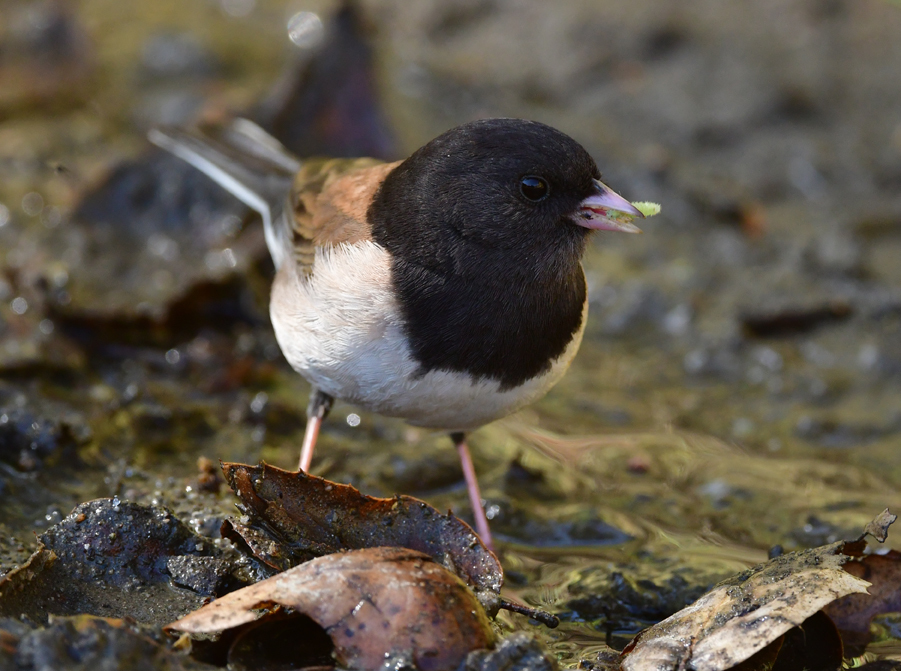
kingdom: Animalia
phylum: Chordata
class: Aves
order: Passeriformes
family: Passerellidae
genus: Junco
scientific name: Junco hyemalis
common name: Dark-eyed junco
